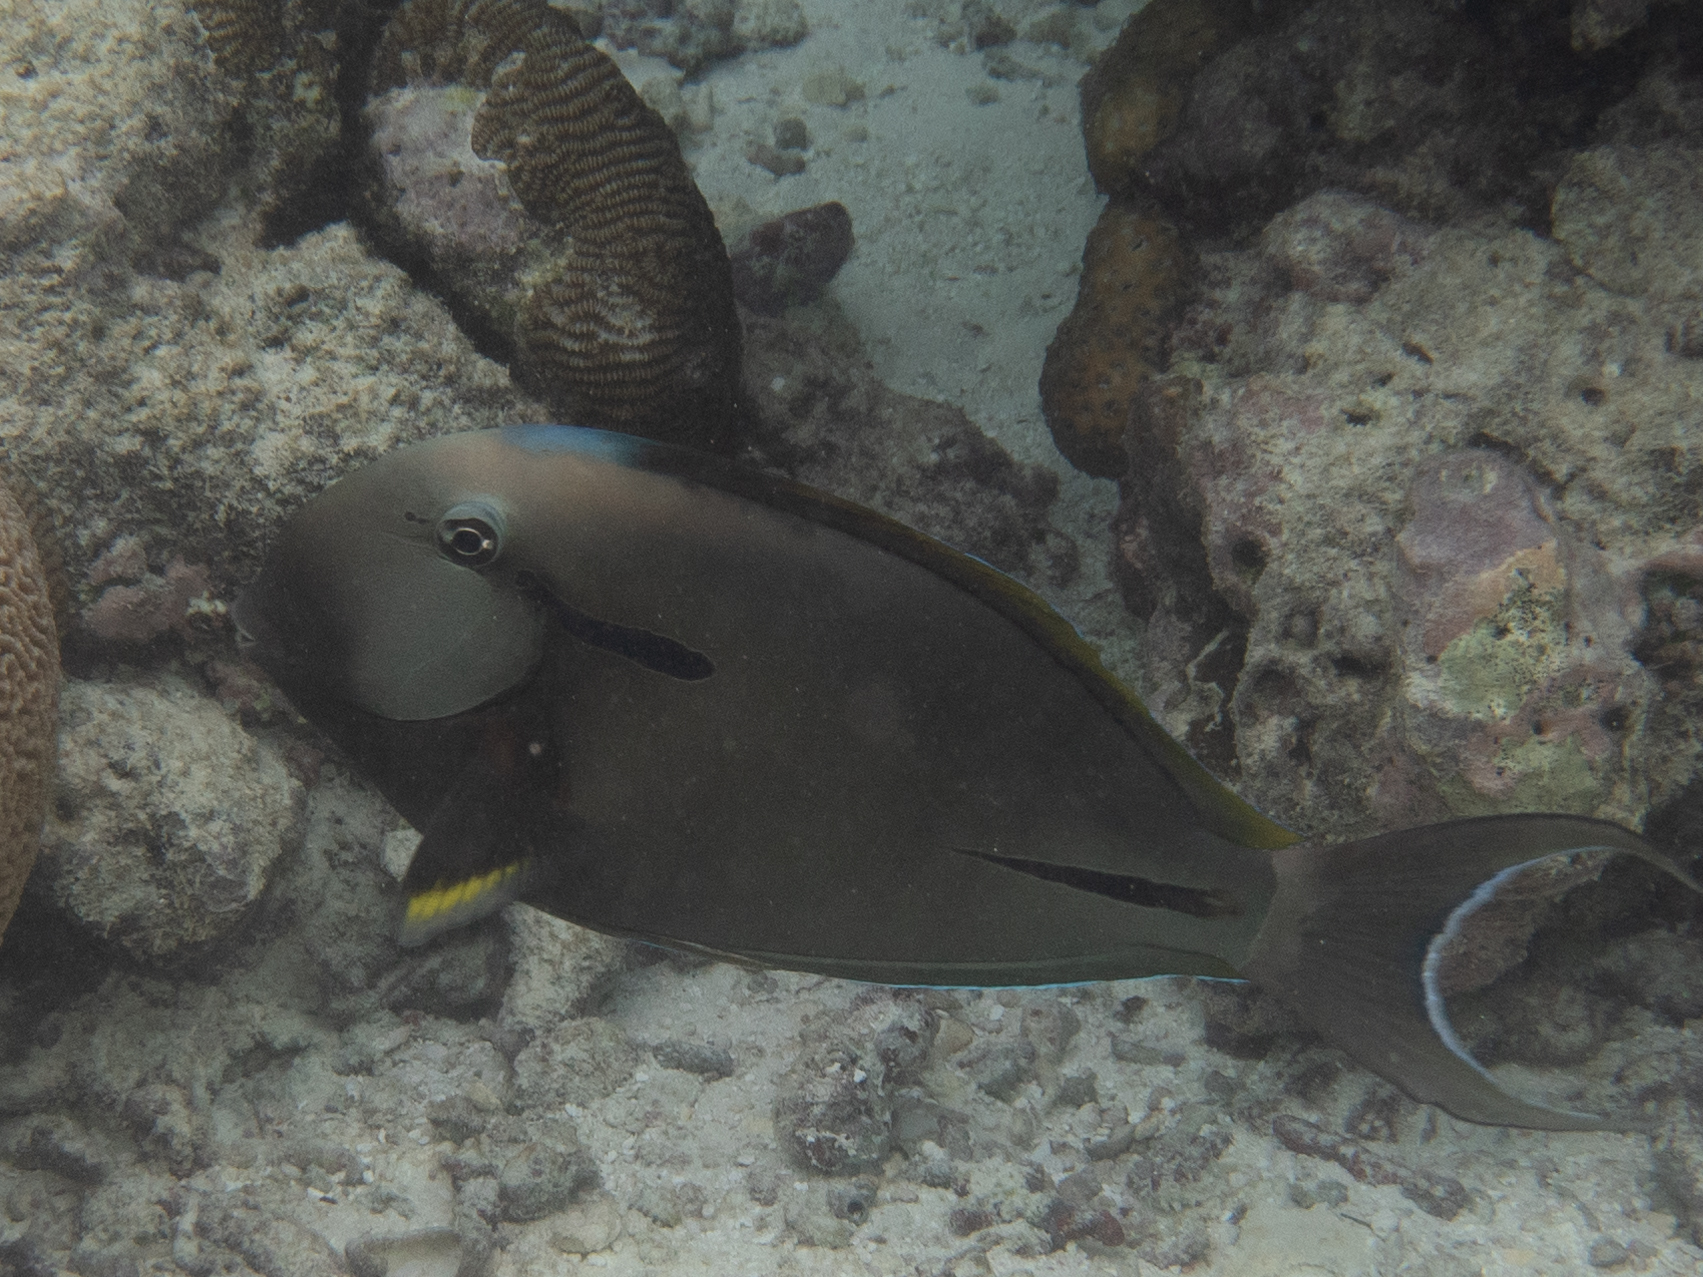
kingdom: Animalia
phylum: Chordata
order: Perciformes
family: Acanthuridae
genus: Acanthurus
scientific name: Acanthurus nigricauda
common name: Black-barred surgeonfish
